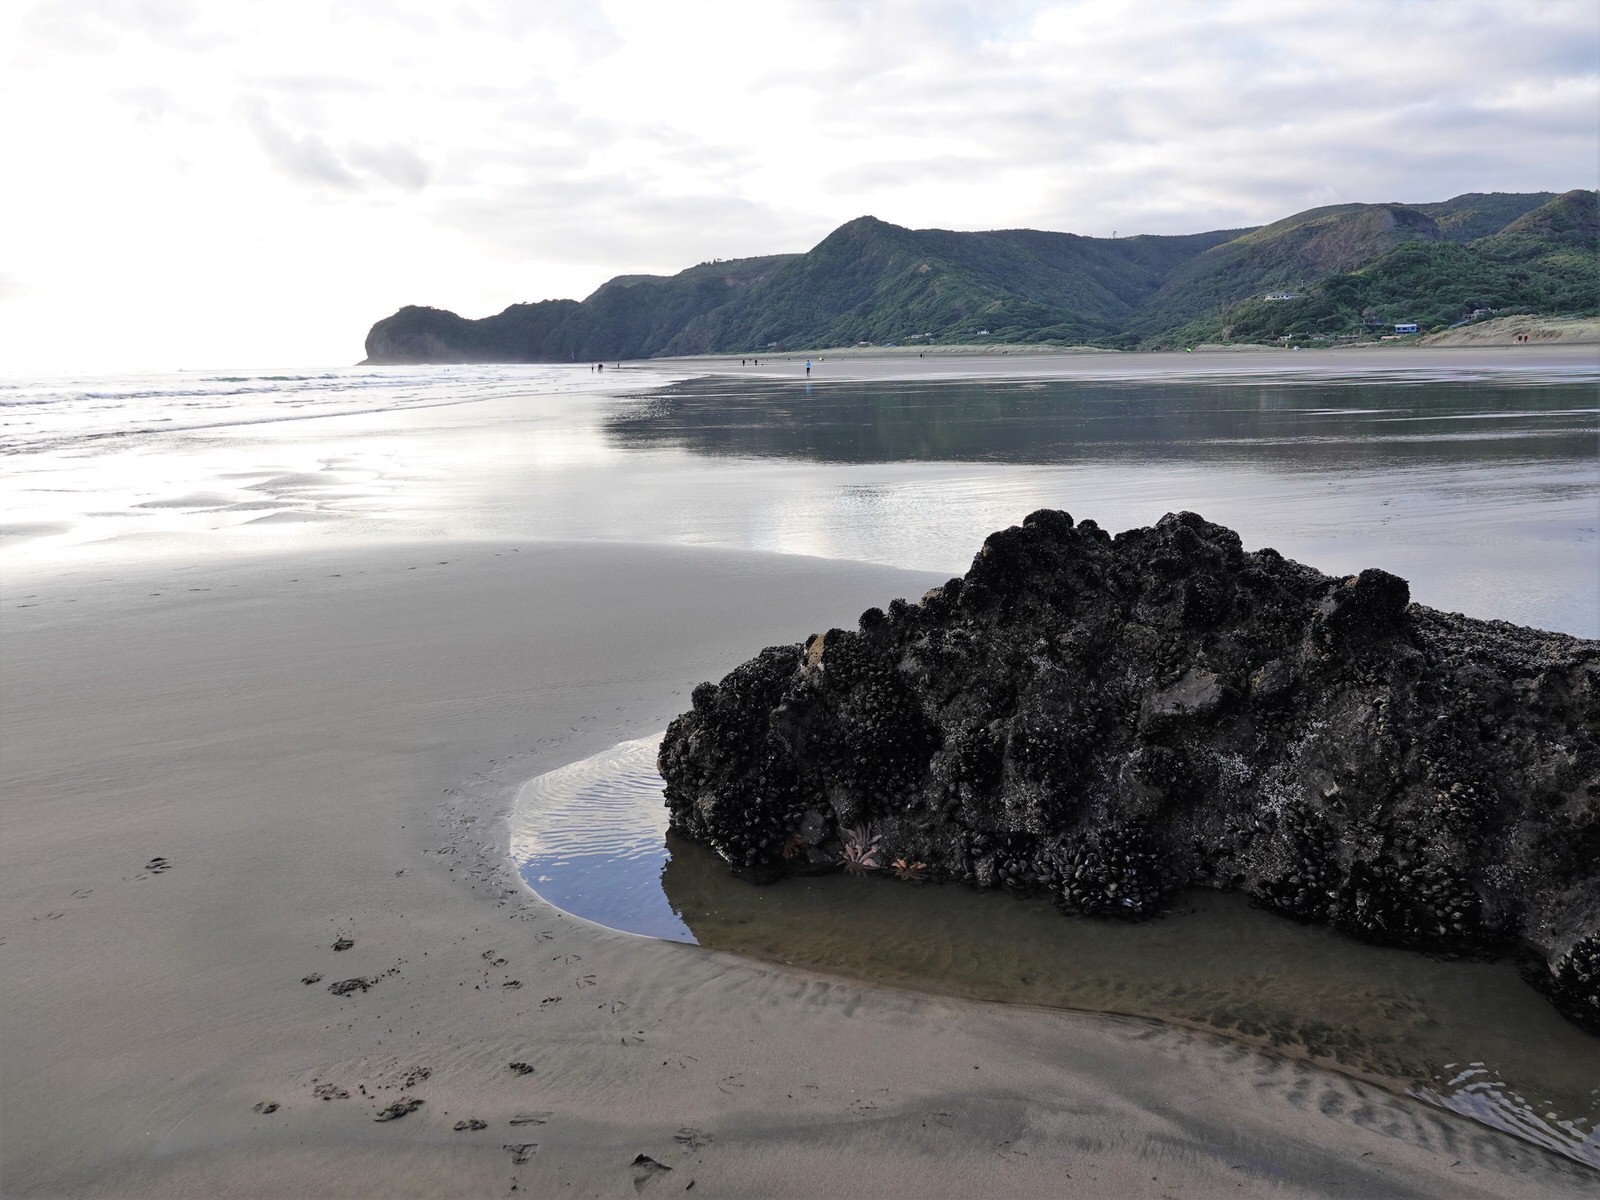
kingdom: Animalia
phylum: Echinodermata
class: Asteroidea
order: Forcipulatida
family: Stichasteridae
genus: Stichaster
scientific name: Stichaster australis
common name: Reef starfish
